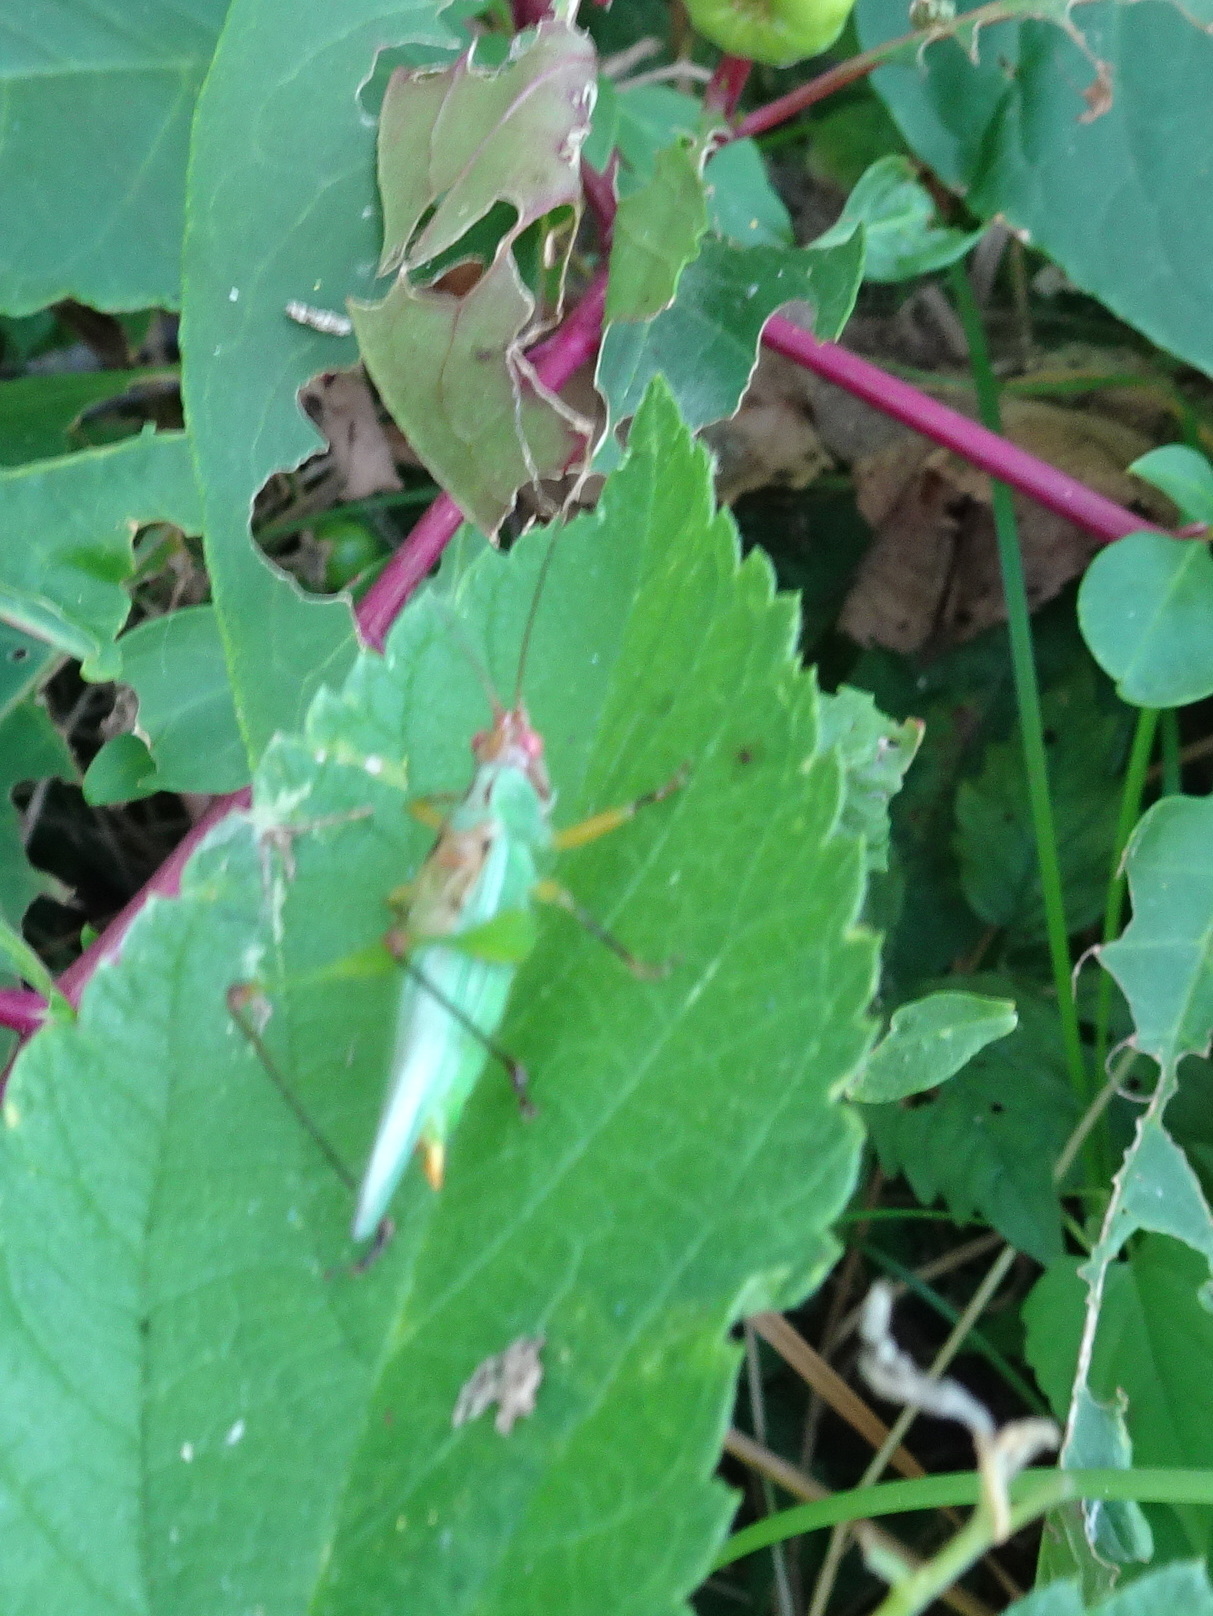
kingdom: Animalia
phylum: Arthropoda
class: Insecta
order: Orthoptera
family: Tettigoniidae
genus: Orchelimum
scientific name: Orchelimum nigripes
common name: Black-legged meadow katydid
